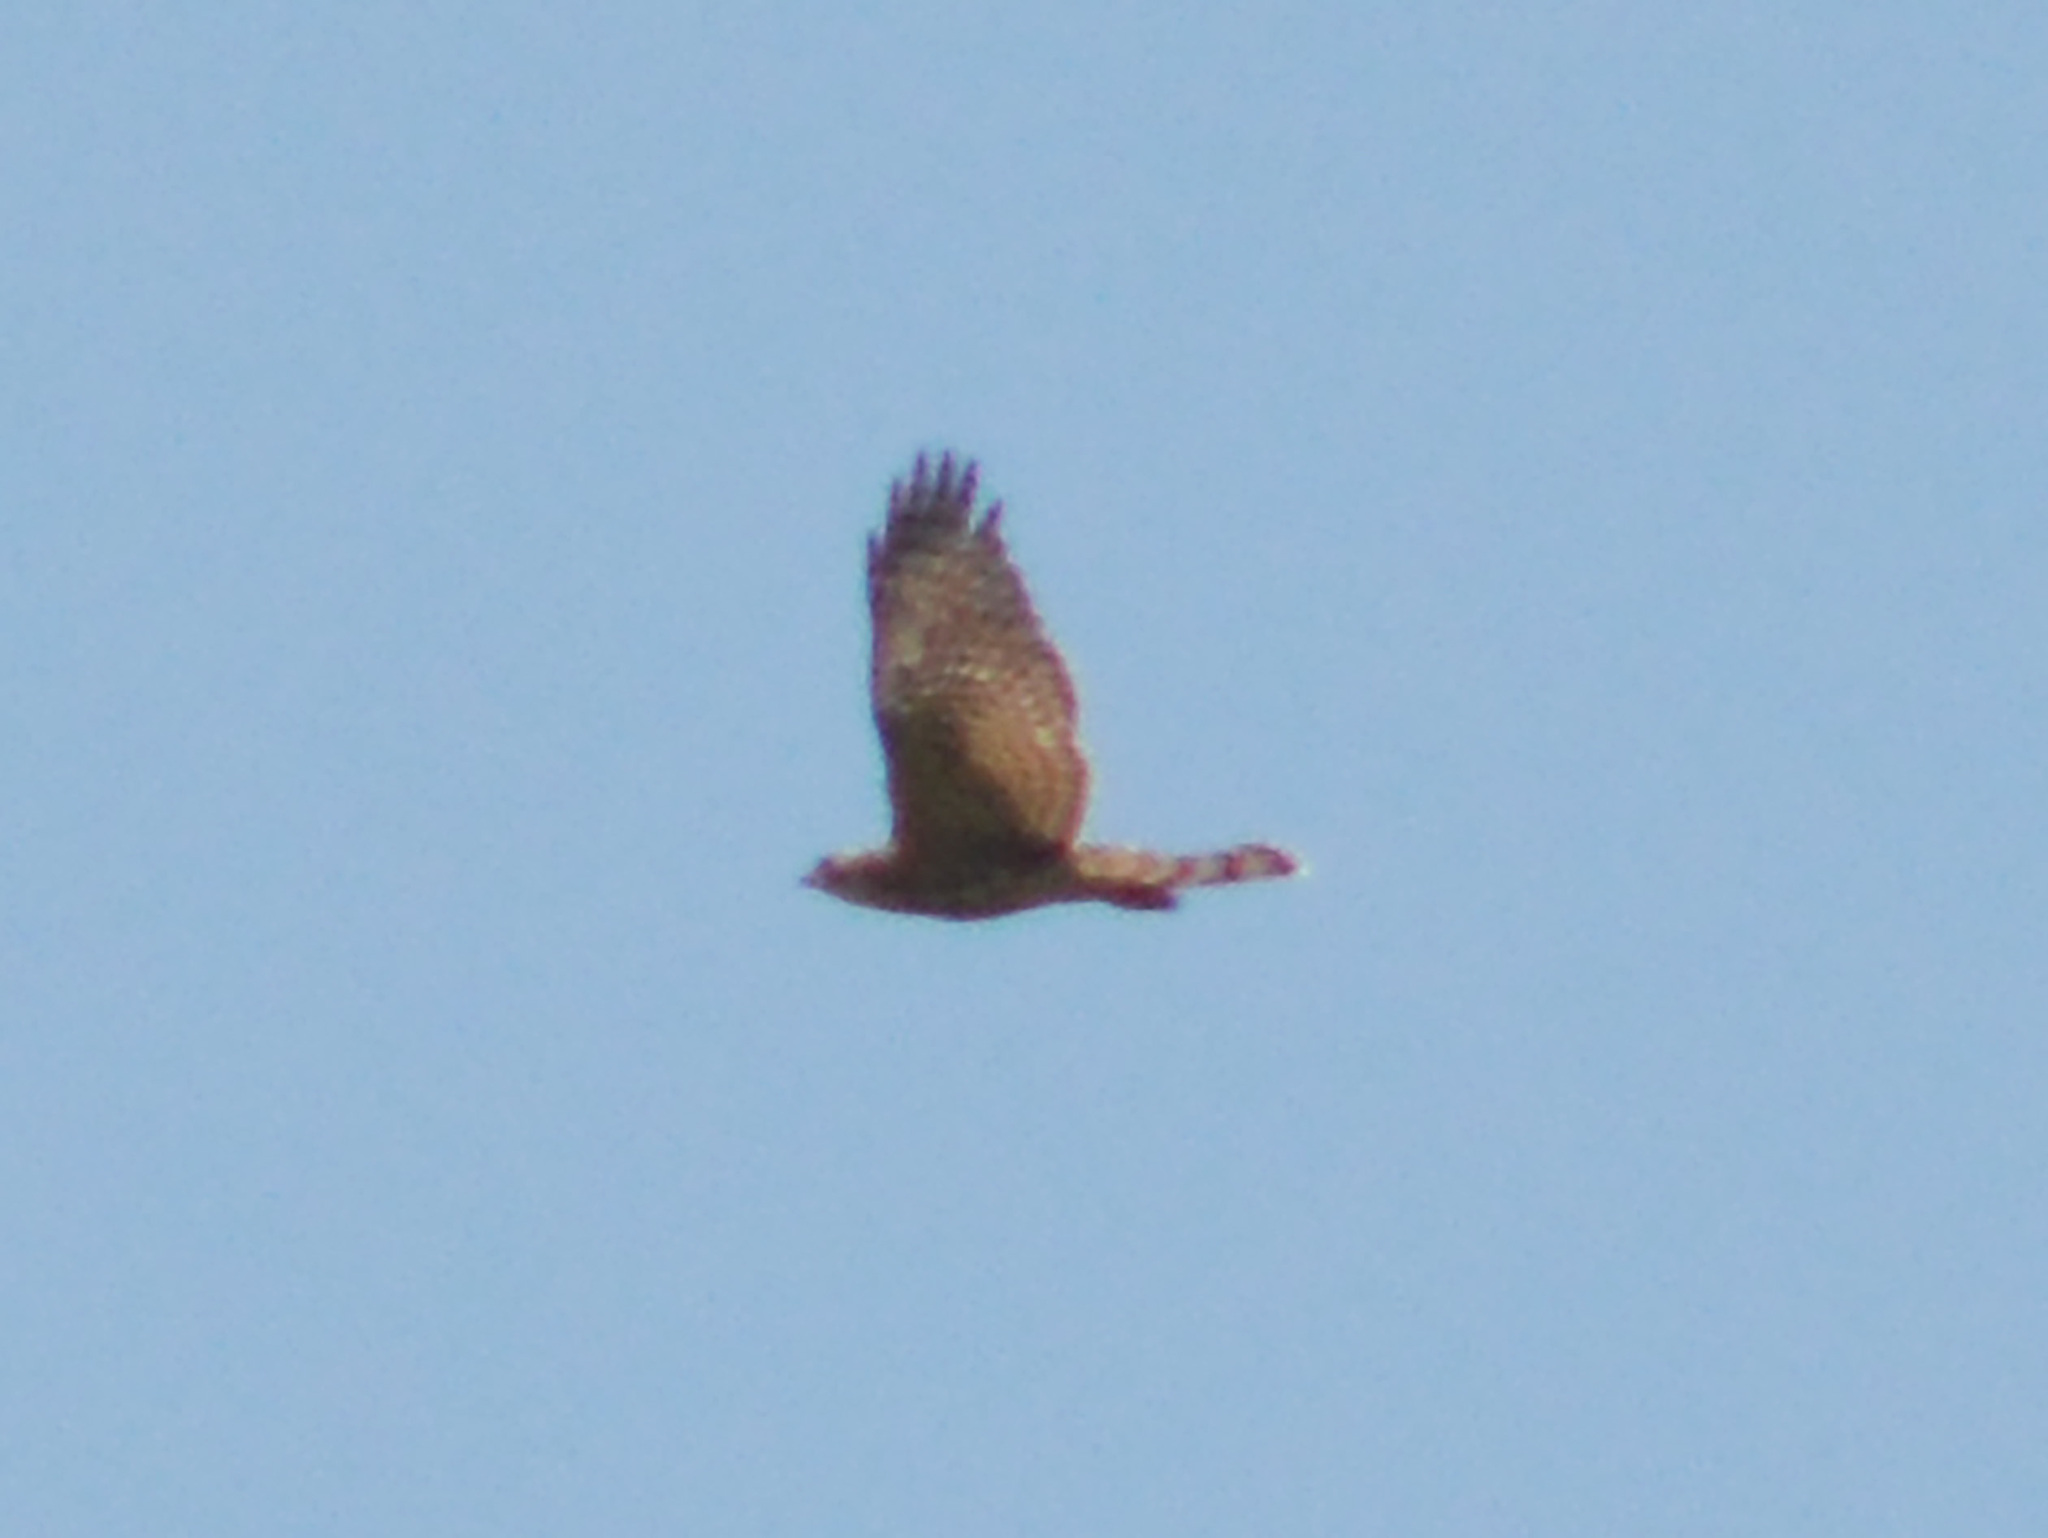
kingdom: Animalia
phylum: Chordata
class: Aves
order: Accipitriformes
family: Accipitridae
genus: Accipiter
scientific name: Accipiter gentilis
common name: Northern goshawk
